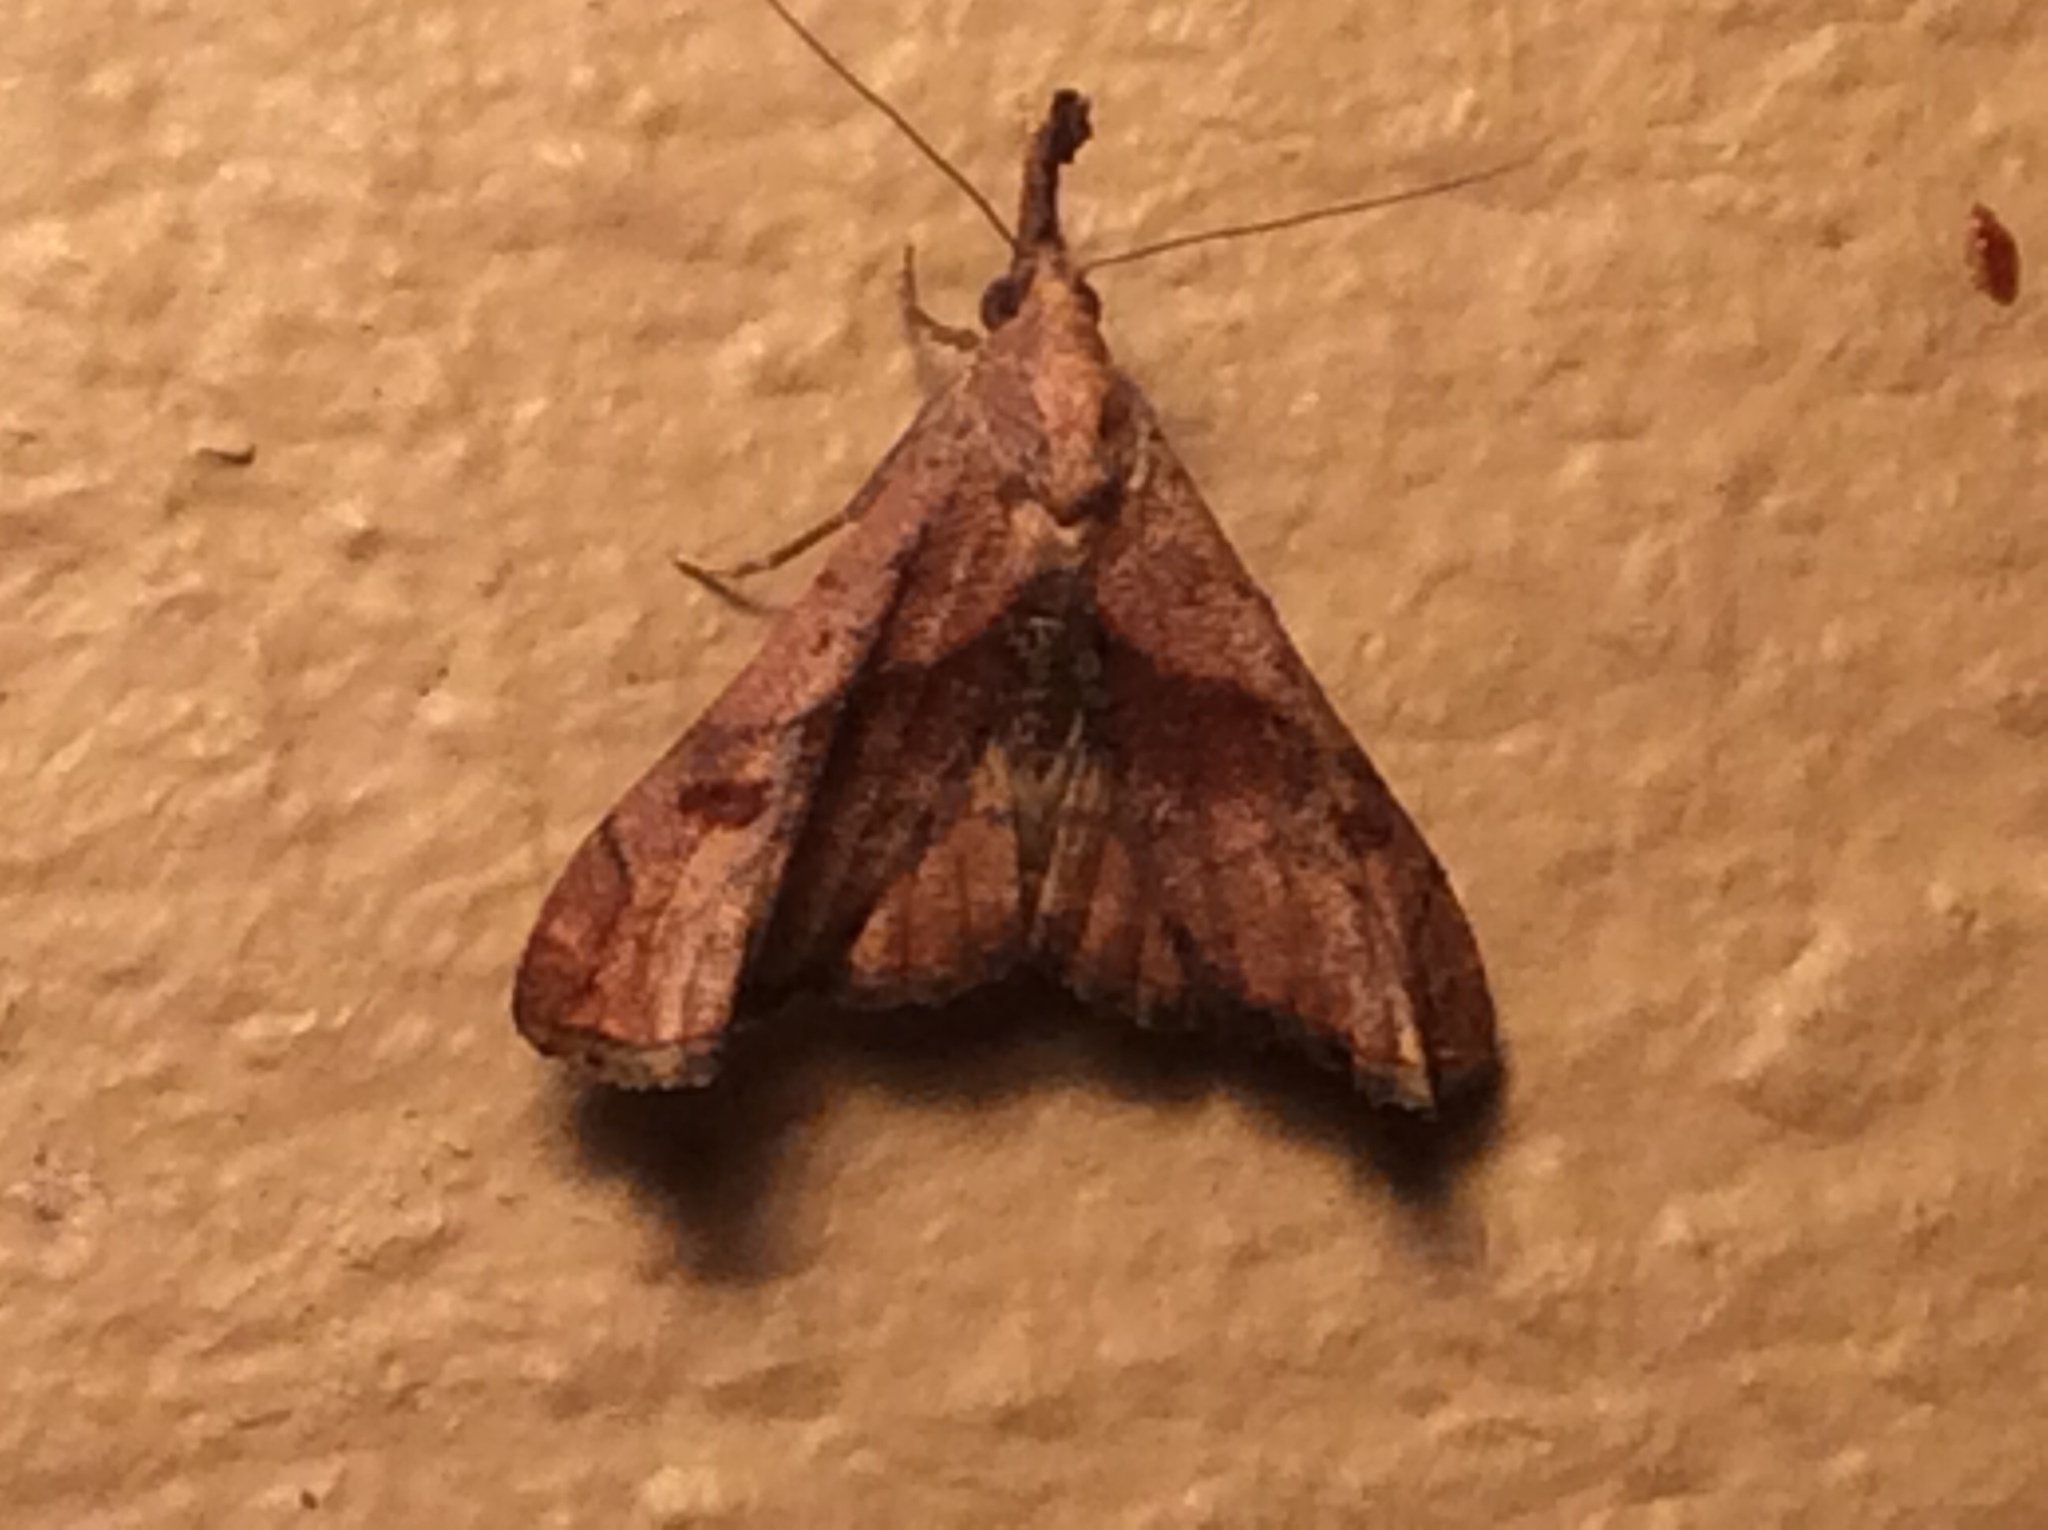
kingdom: Animalia
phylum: Arthropoda
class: Insecta
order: Lepidoptera
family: Erebidae
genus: Palthis
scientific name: Palthis angulalis
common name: Dark-spotted palthis moth
